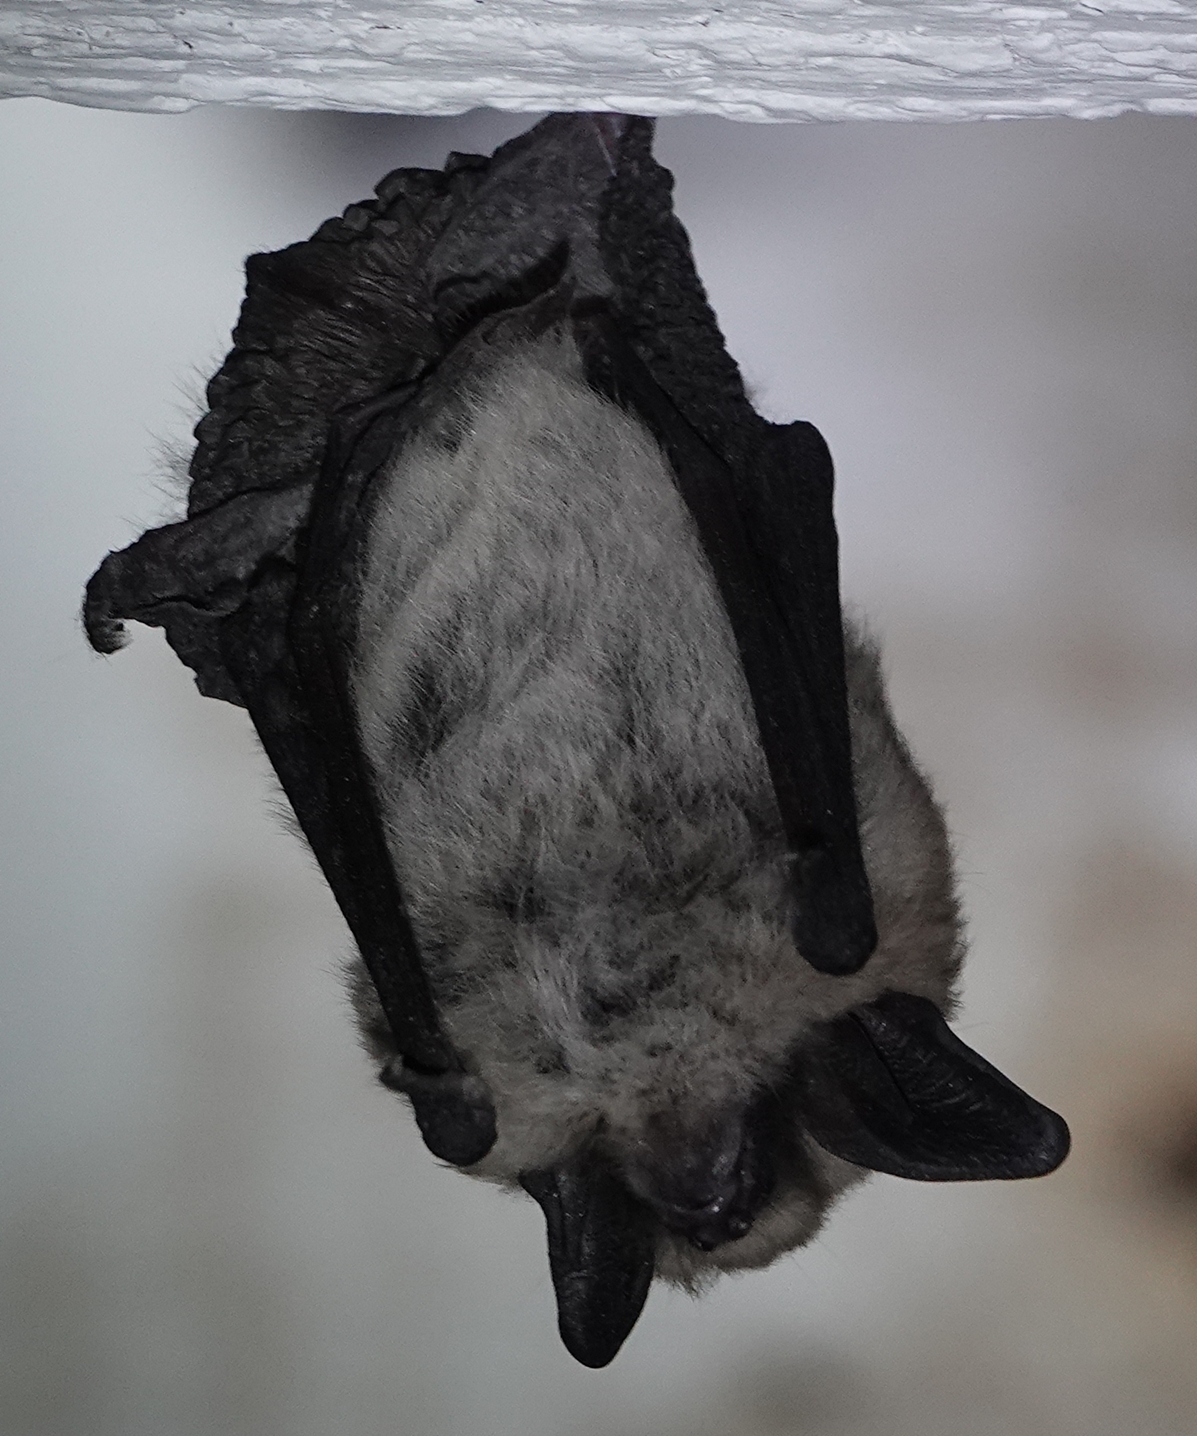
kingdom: Animalia
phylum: Chordata
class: Mammalia
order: Chiroptera
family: Vespertilionidae
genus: Myotis
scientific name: Myotis ciliolabrum
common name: Western small-footed myotis
